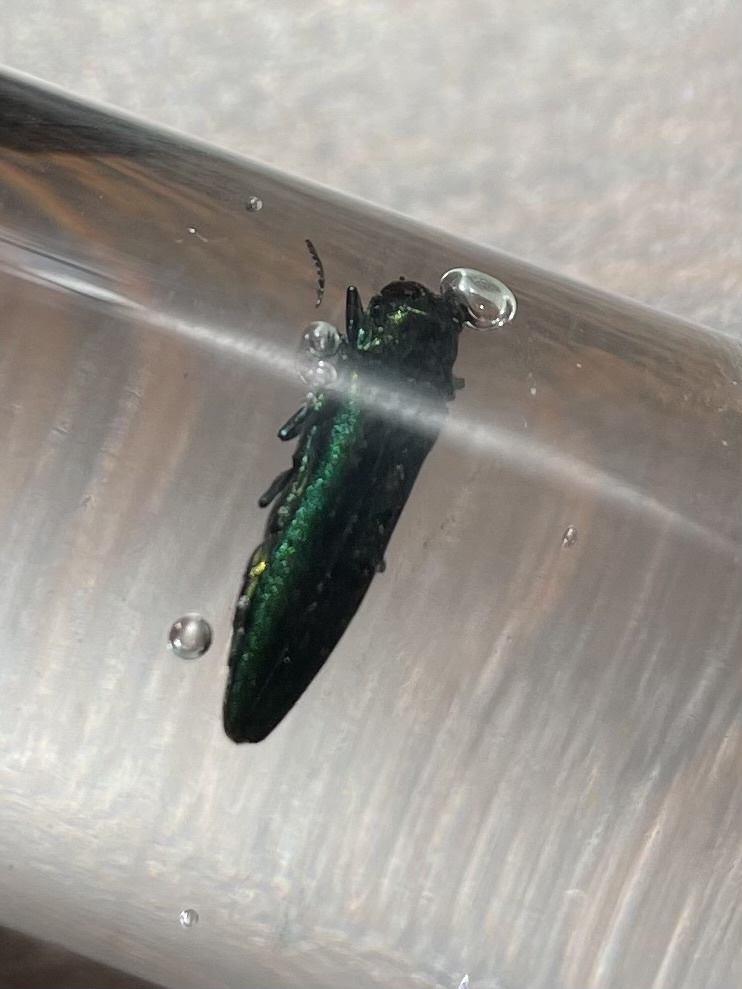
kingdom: Animalia
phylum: Arthropoda
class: Insecta
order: Coleoptera
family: Buprestidae
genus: Agrilus
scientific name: Agrilus planipennis
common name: Emerald ash borer
